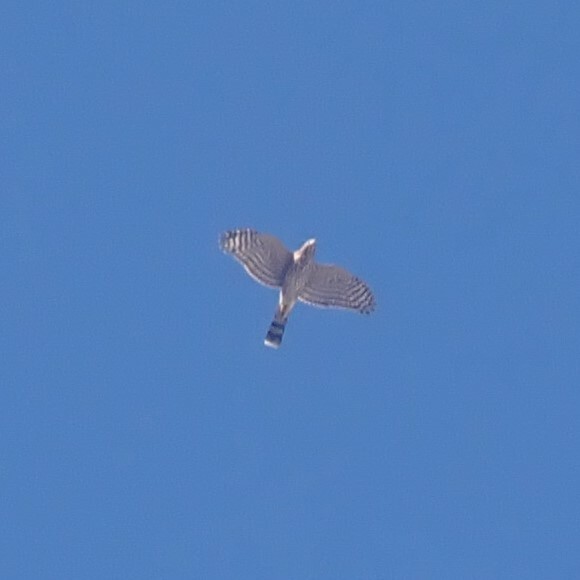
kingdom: Animalia
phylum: Chordata
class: Aves
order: Accipitriformes
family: Accipitridae
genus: Accipiter
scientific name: Accipiter striatus
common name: Sharp-shinned hawk
